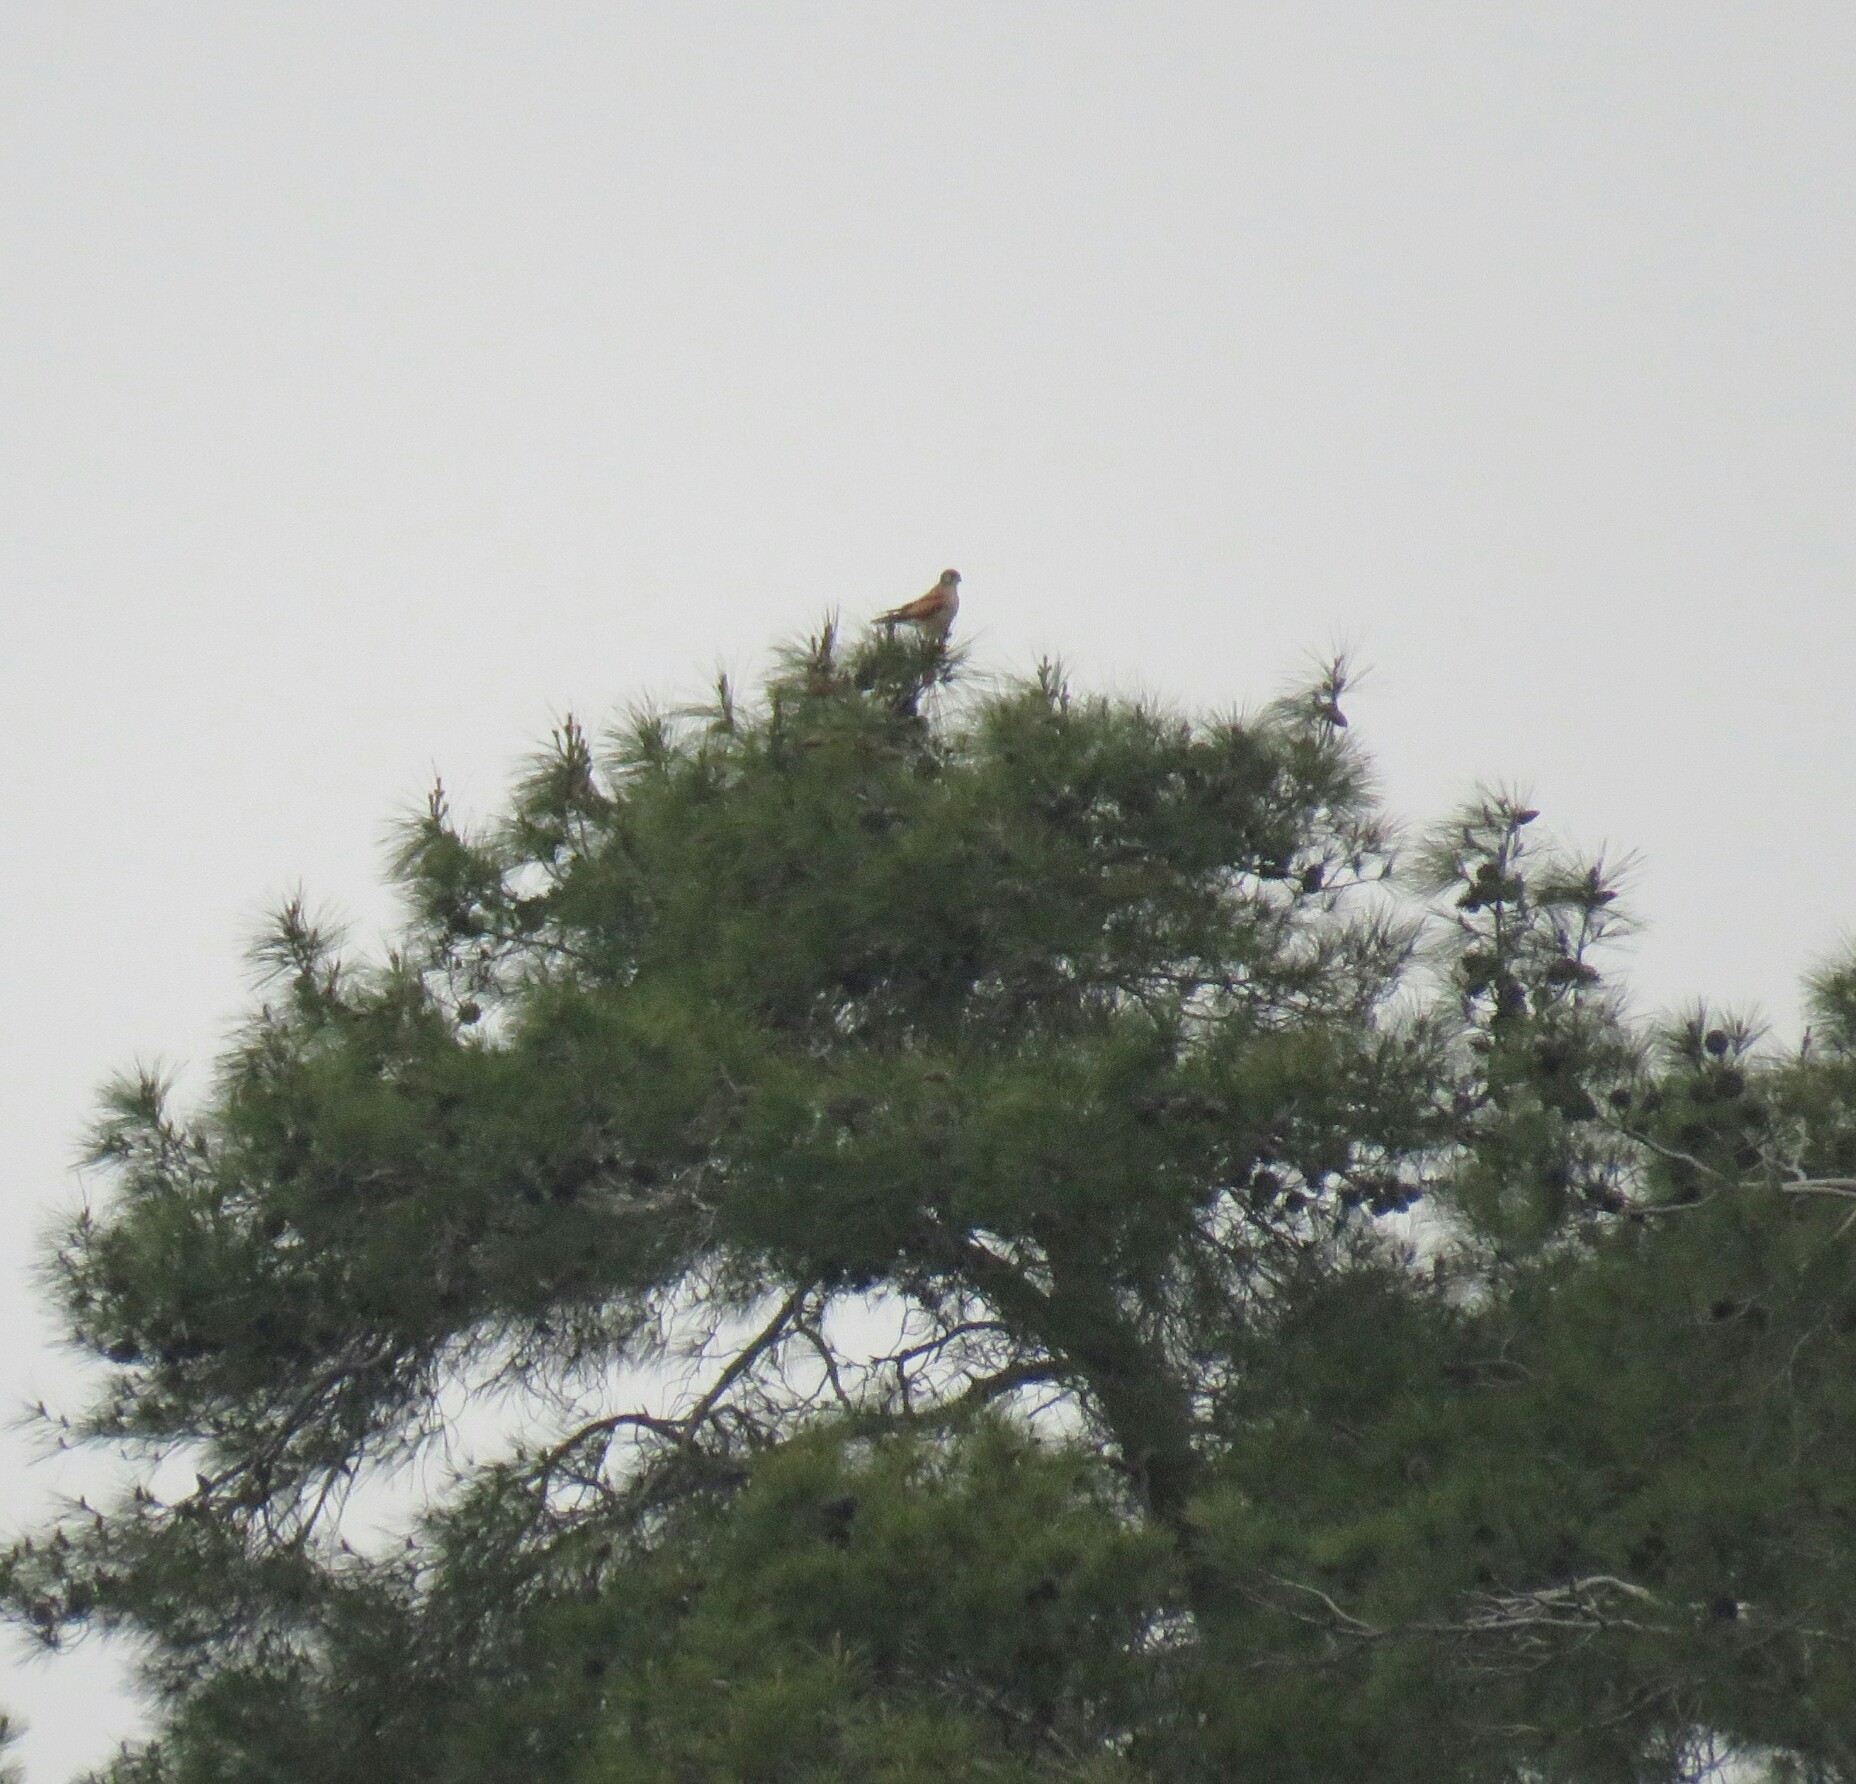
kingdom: Animalia
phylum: Chordata
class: Aves
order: Falconiformes
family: Falconidae
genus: Falco
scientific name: Falco tinnunculus
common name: Common kestrel
